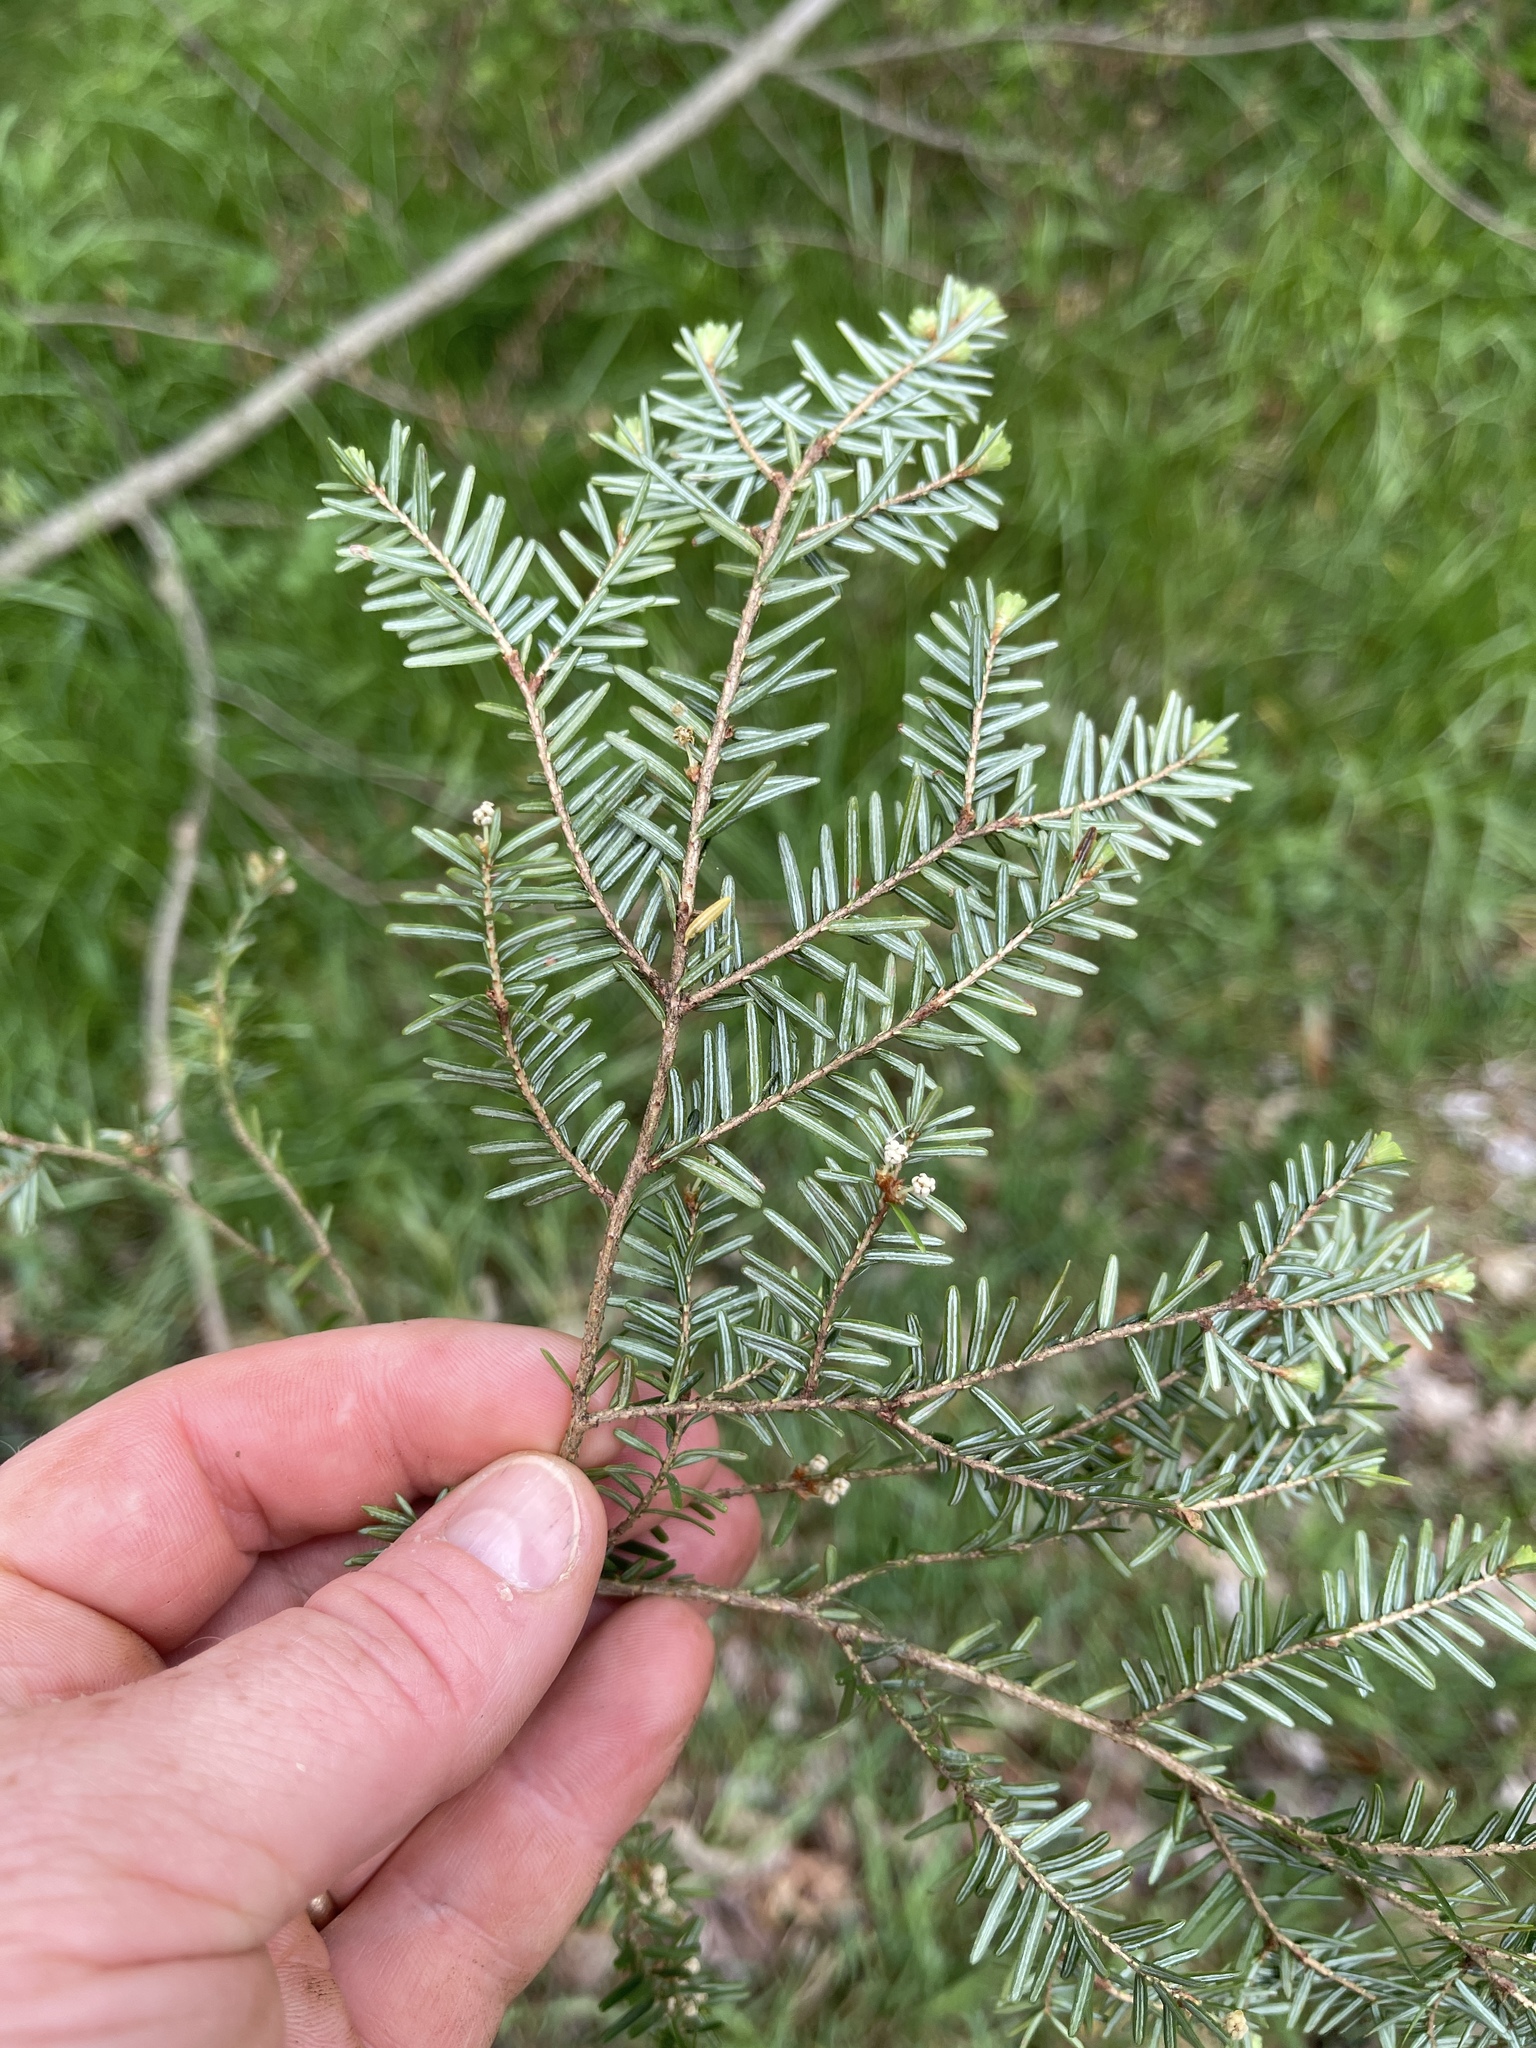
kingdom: Plantae
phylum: Tracheophyta
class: Pinopsida
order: Pinales
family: Pinaceae
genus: Tsuga
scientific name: Tsuga canadensis
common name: Eastern hemlock
